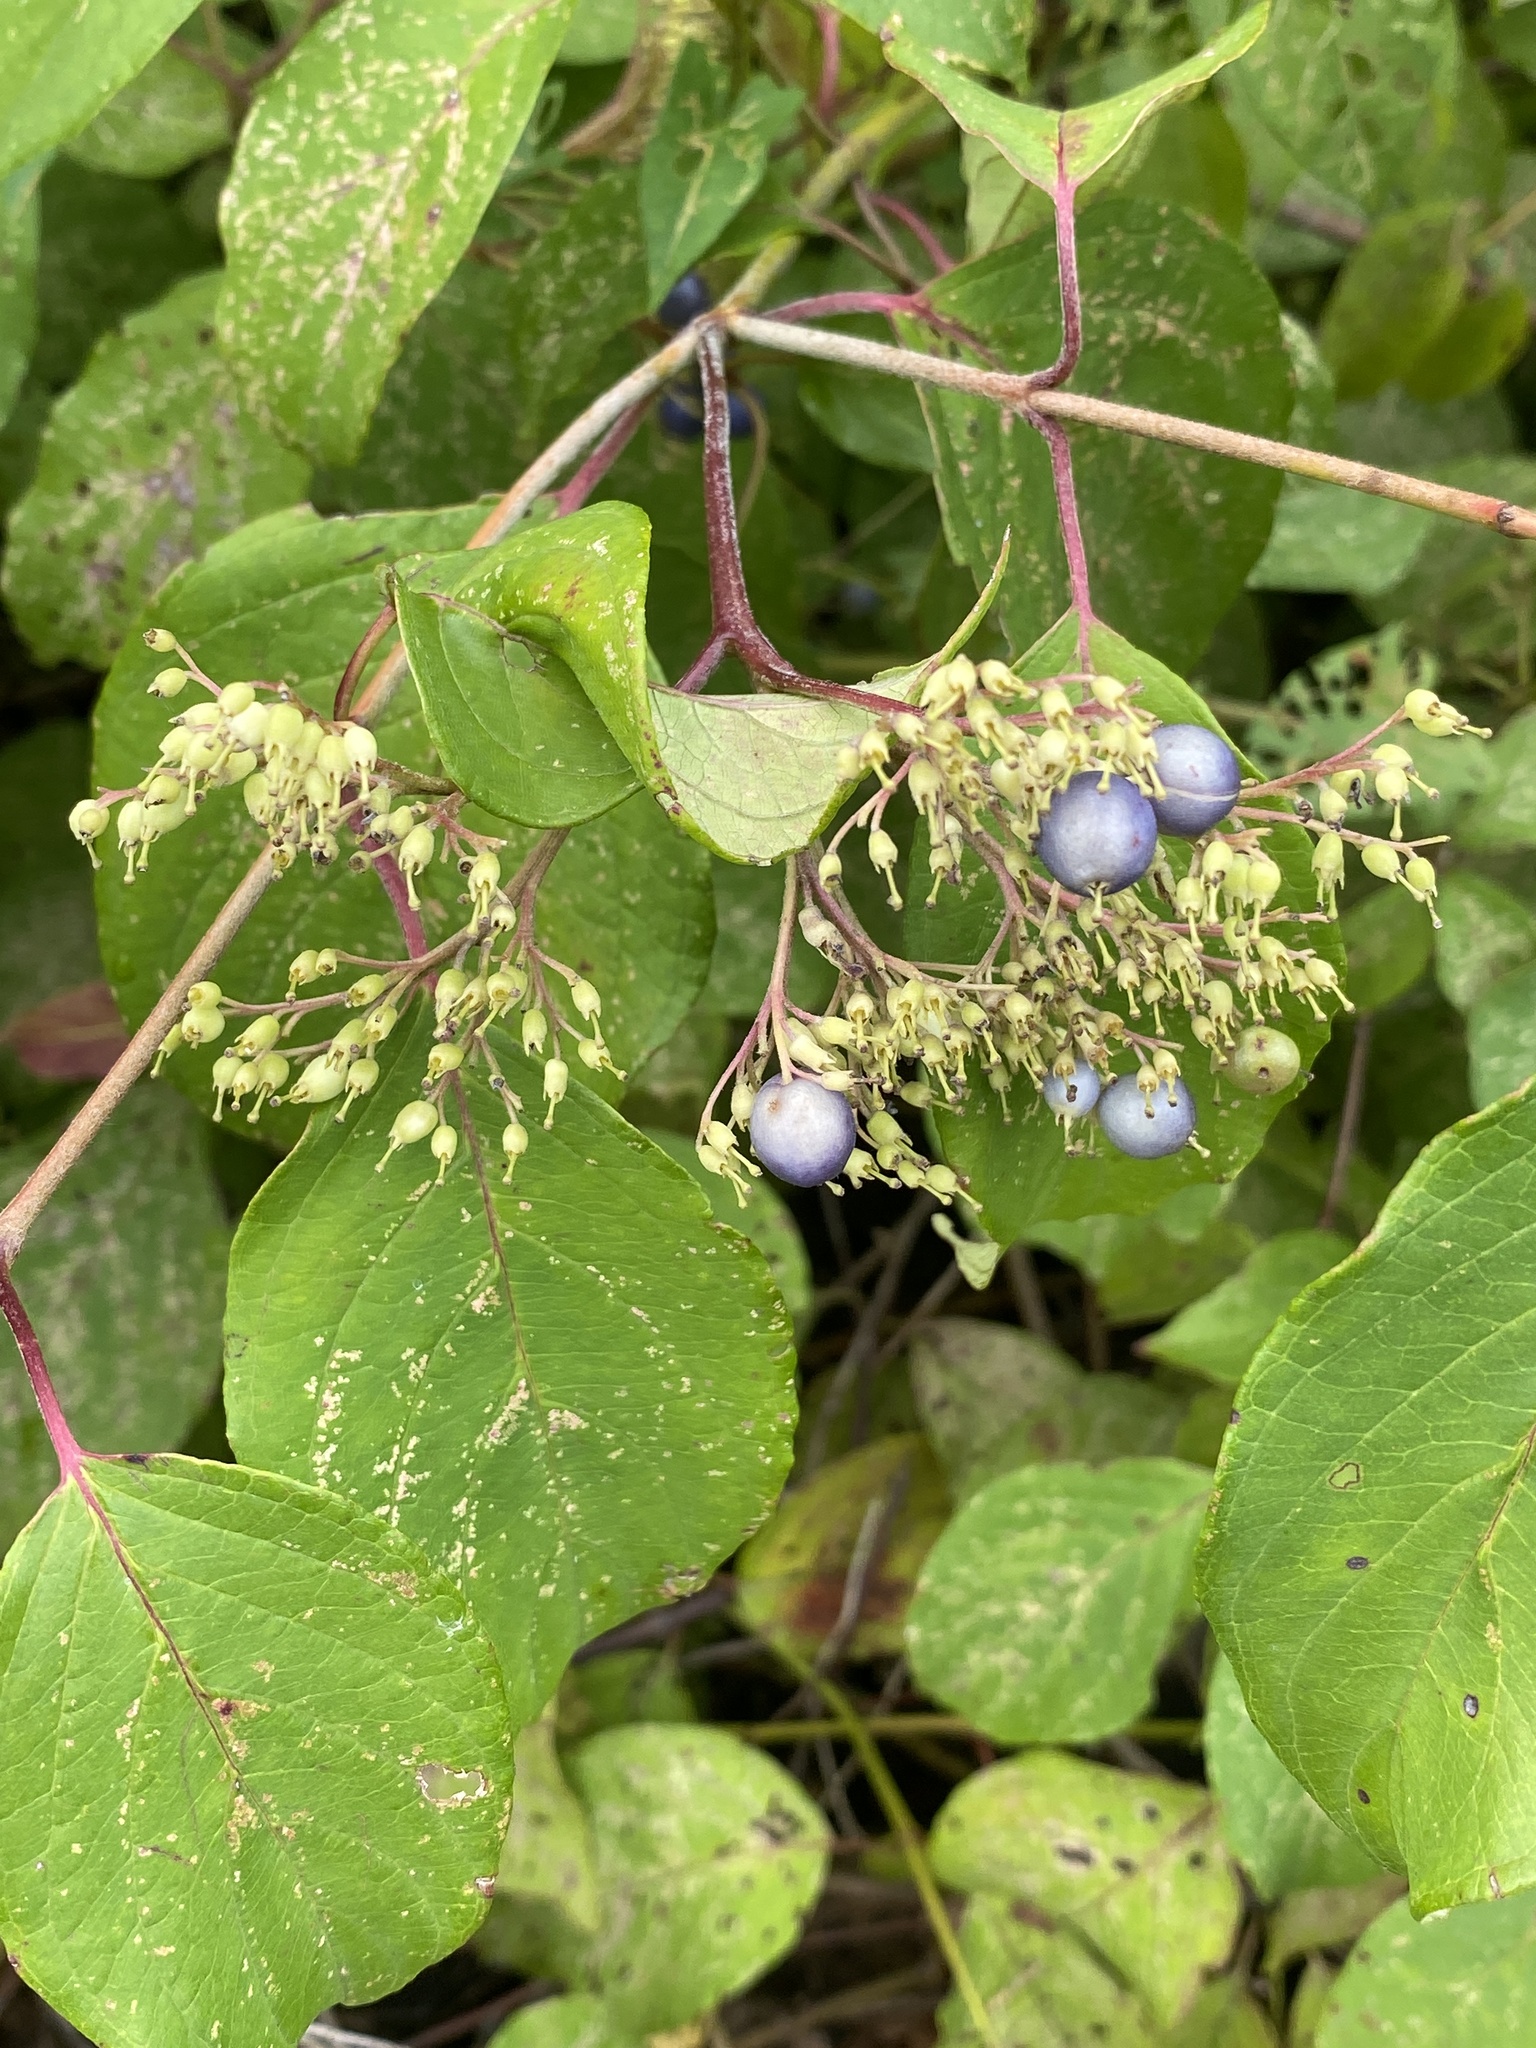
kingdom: Plantae
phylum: Tracheophyta
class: Magnoliopsida
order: Cornales
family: Cornaceae
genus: Cornus
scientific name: Cornus amomum
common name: Silky dogwood
